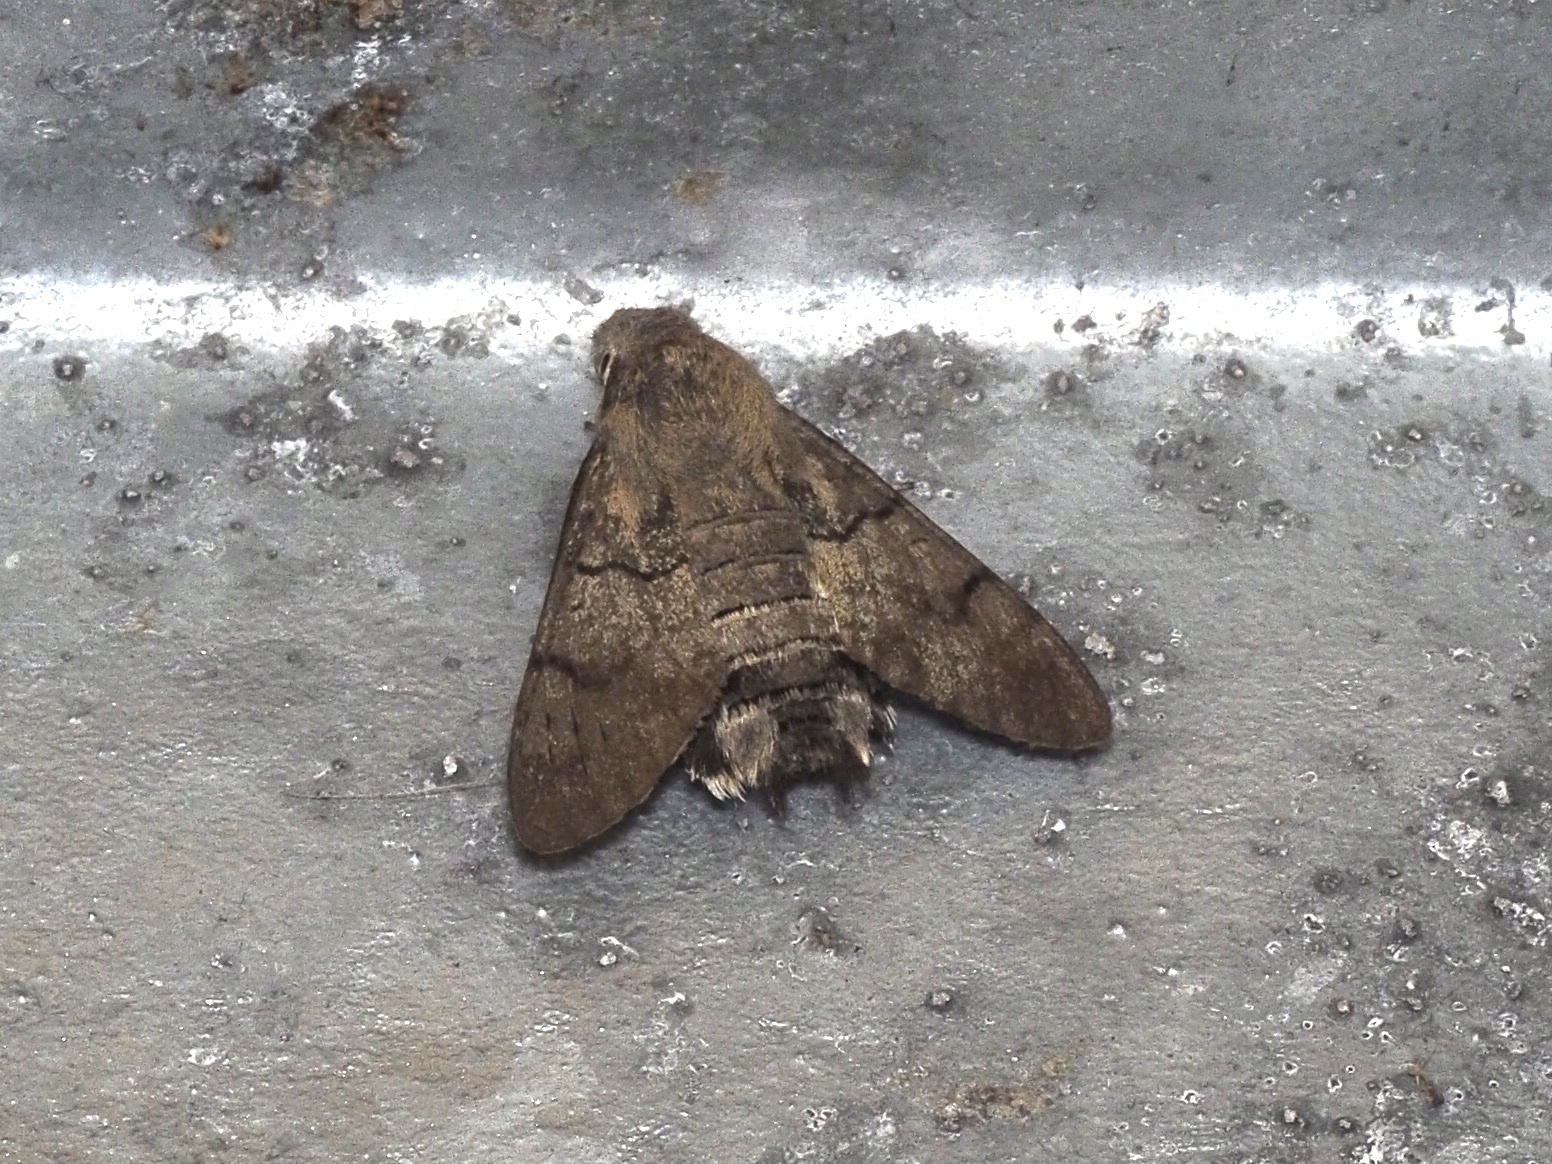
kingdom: Animalia
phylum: Arthropoda
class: Insecta
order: Lepidoptera
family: Sphingidae
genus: Macroglossum
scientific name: Macroglossum stellatarum
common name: Humming-bird hawk-moth
